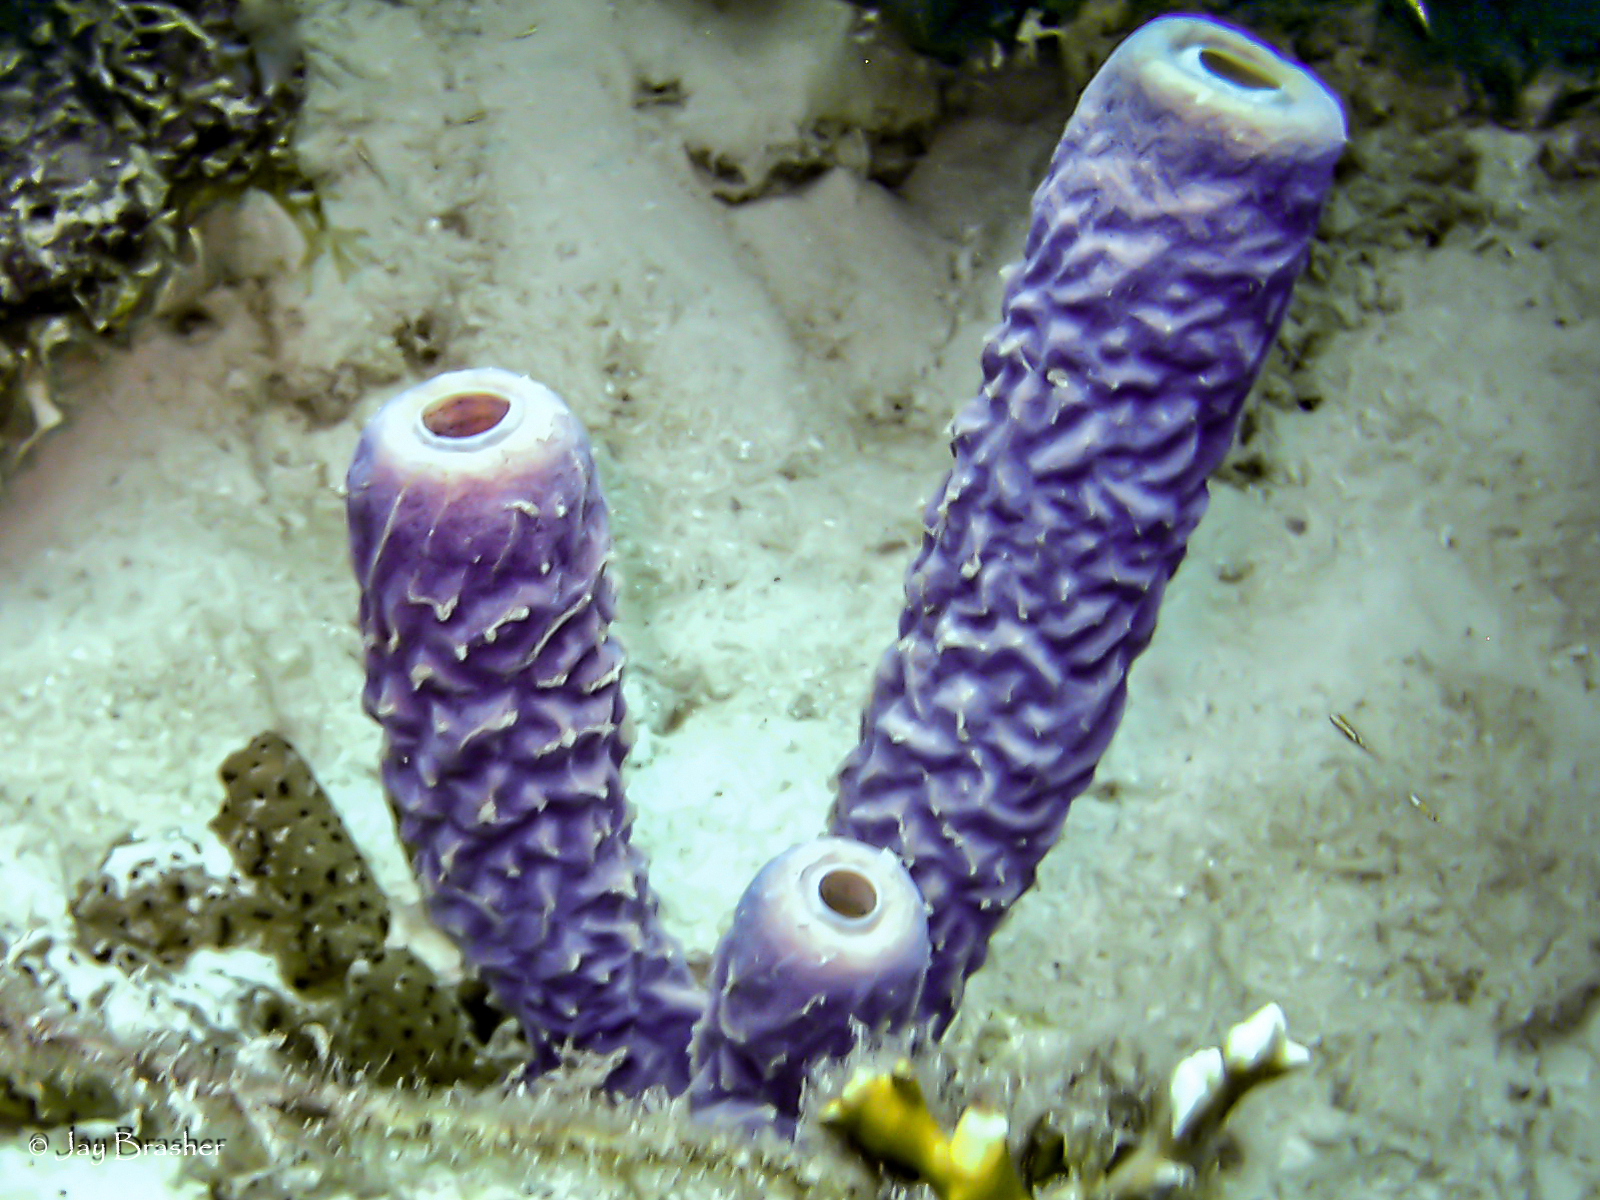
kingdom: Animalia
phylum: Porifera
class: Demospongiae
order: Verongiida
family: Aplysinidae
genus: Aplysina
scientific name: Aplysina archeri
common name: Stove-pipe sponge
